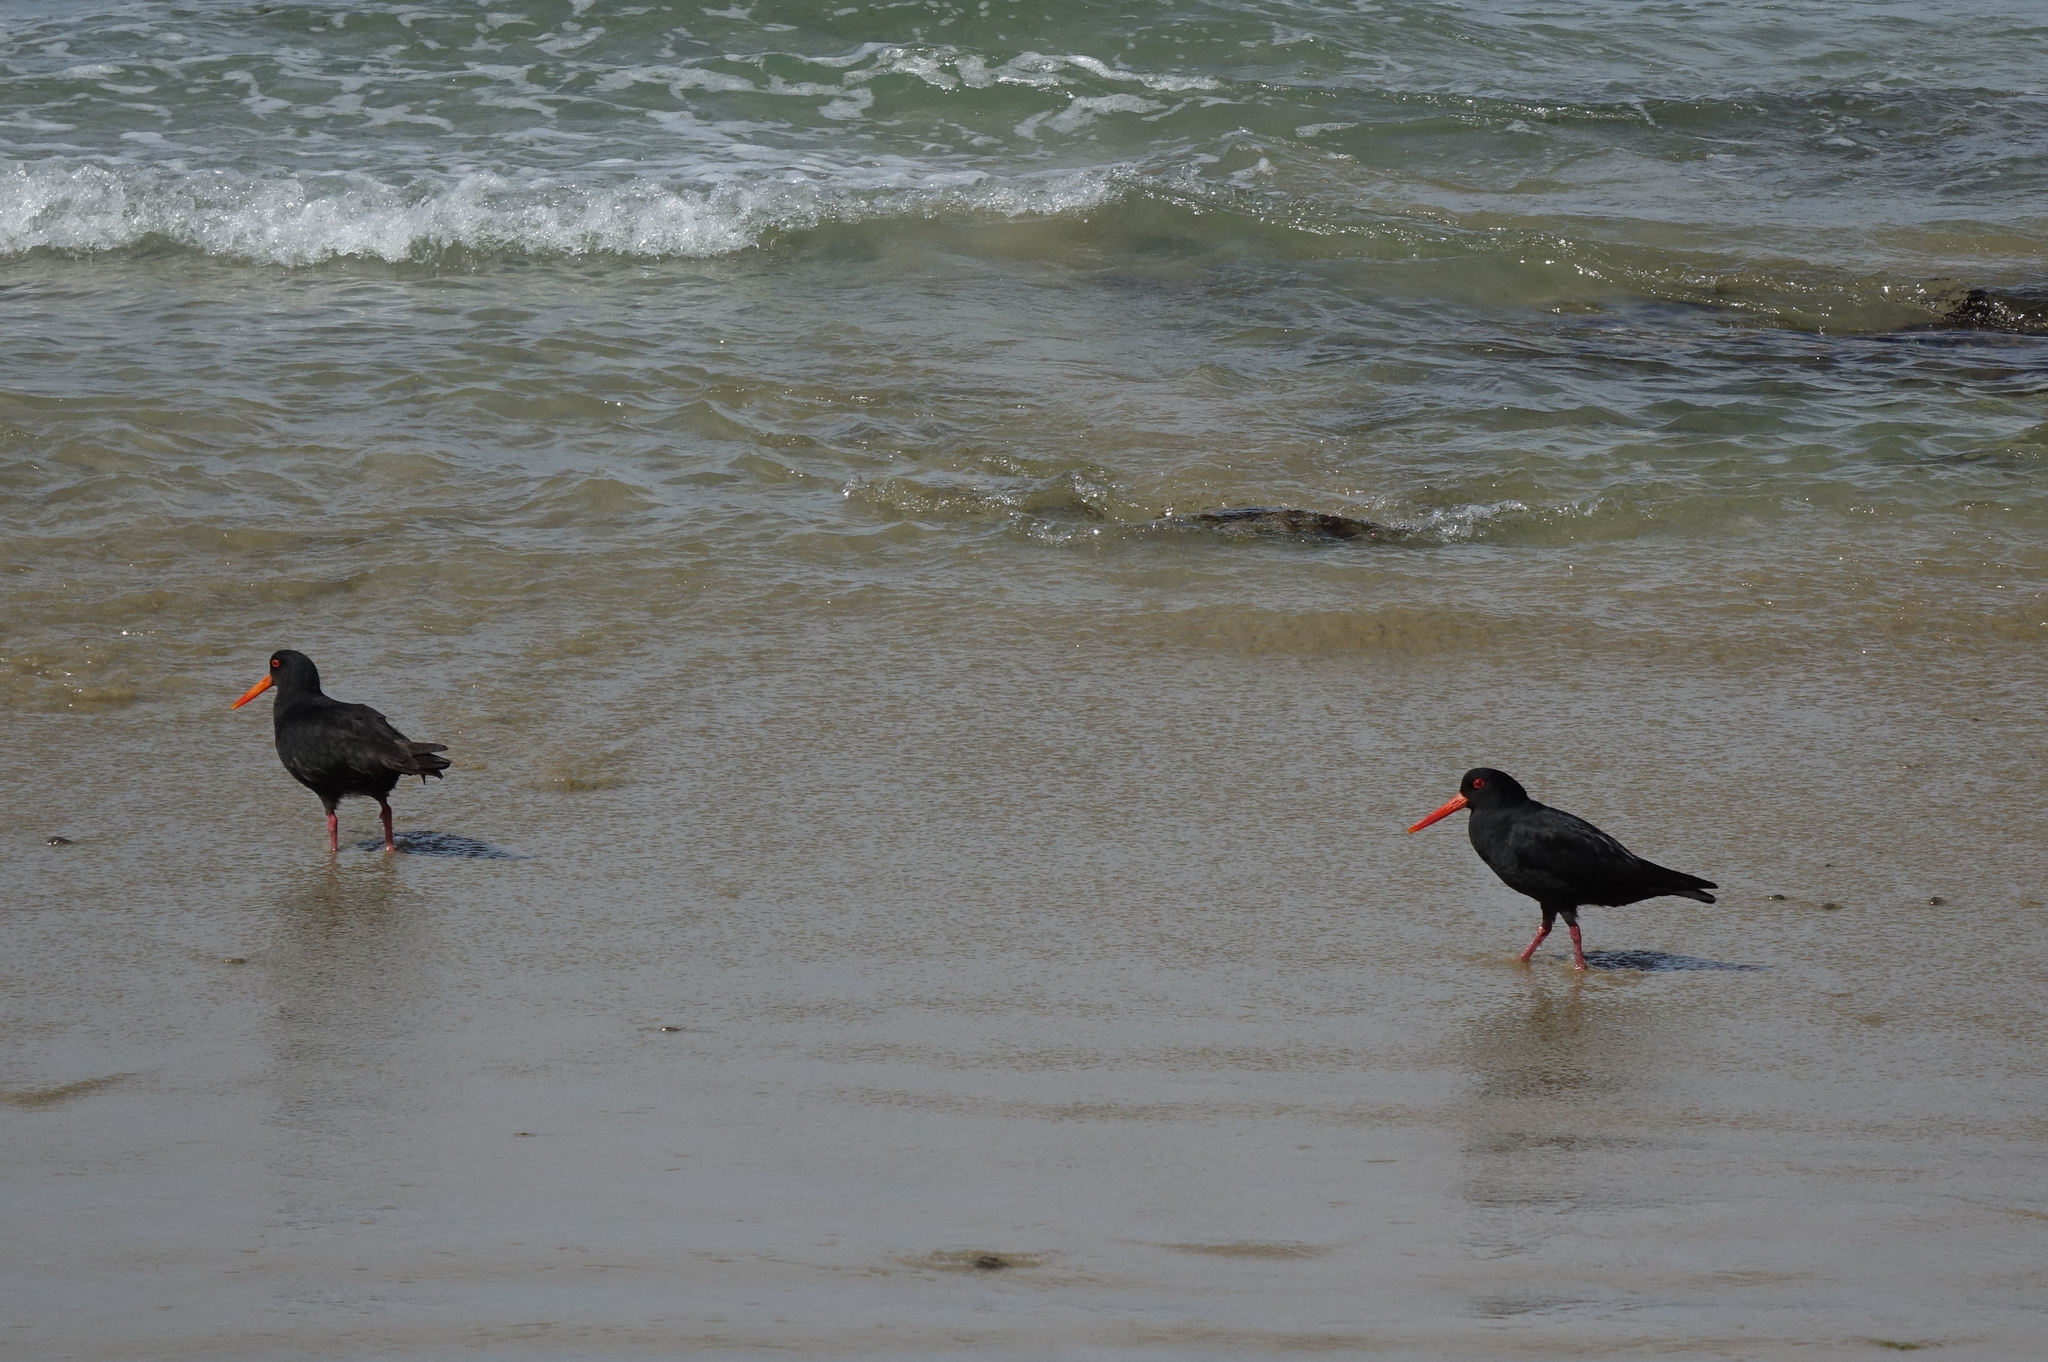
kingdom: Animalia
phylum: Chordata
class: Aves
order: Charadriiformes
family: Haematopodidae
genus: Haematopus
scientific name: Haematopus unicolor
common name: Variable oystercatcher
